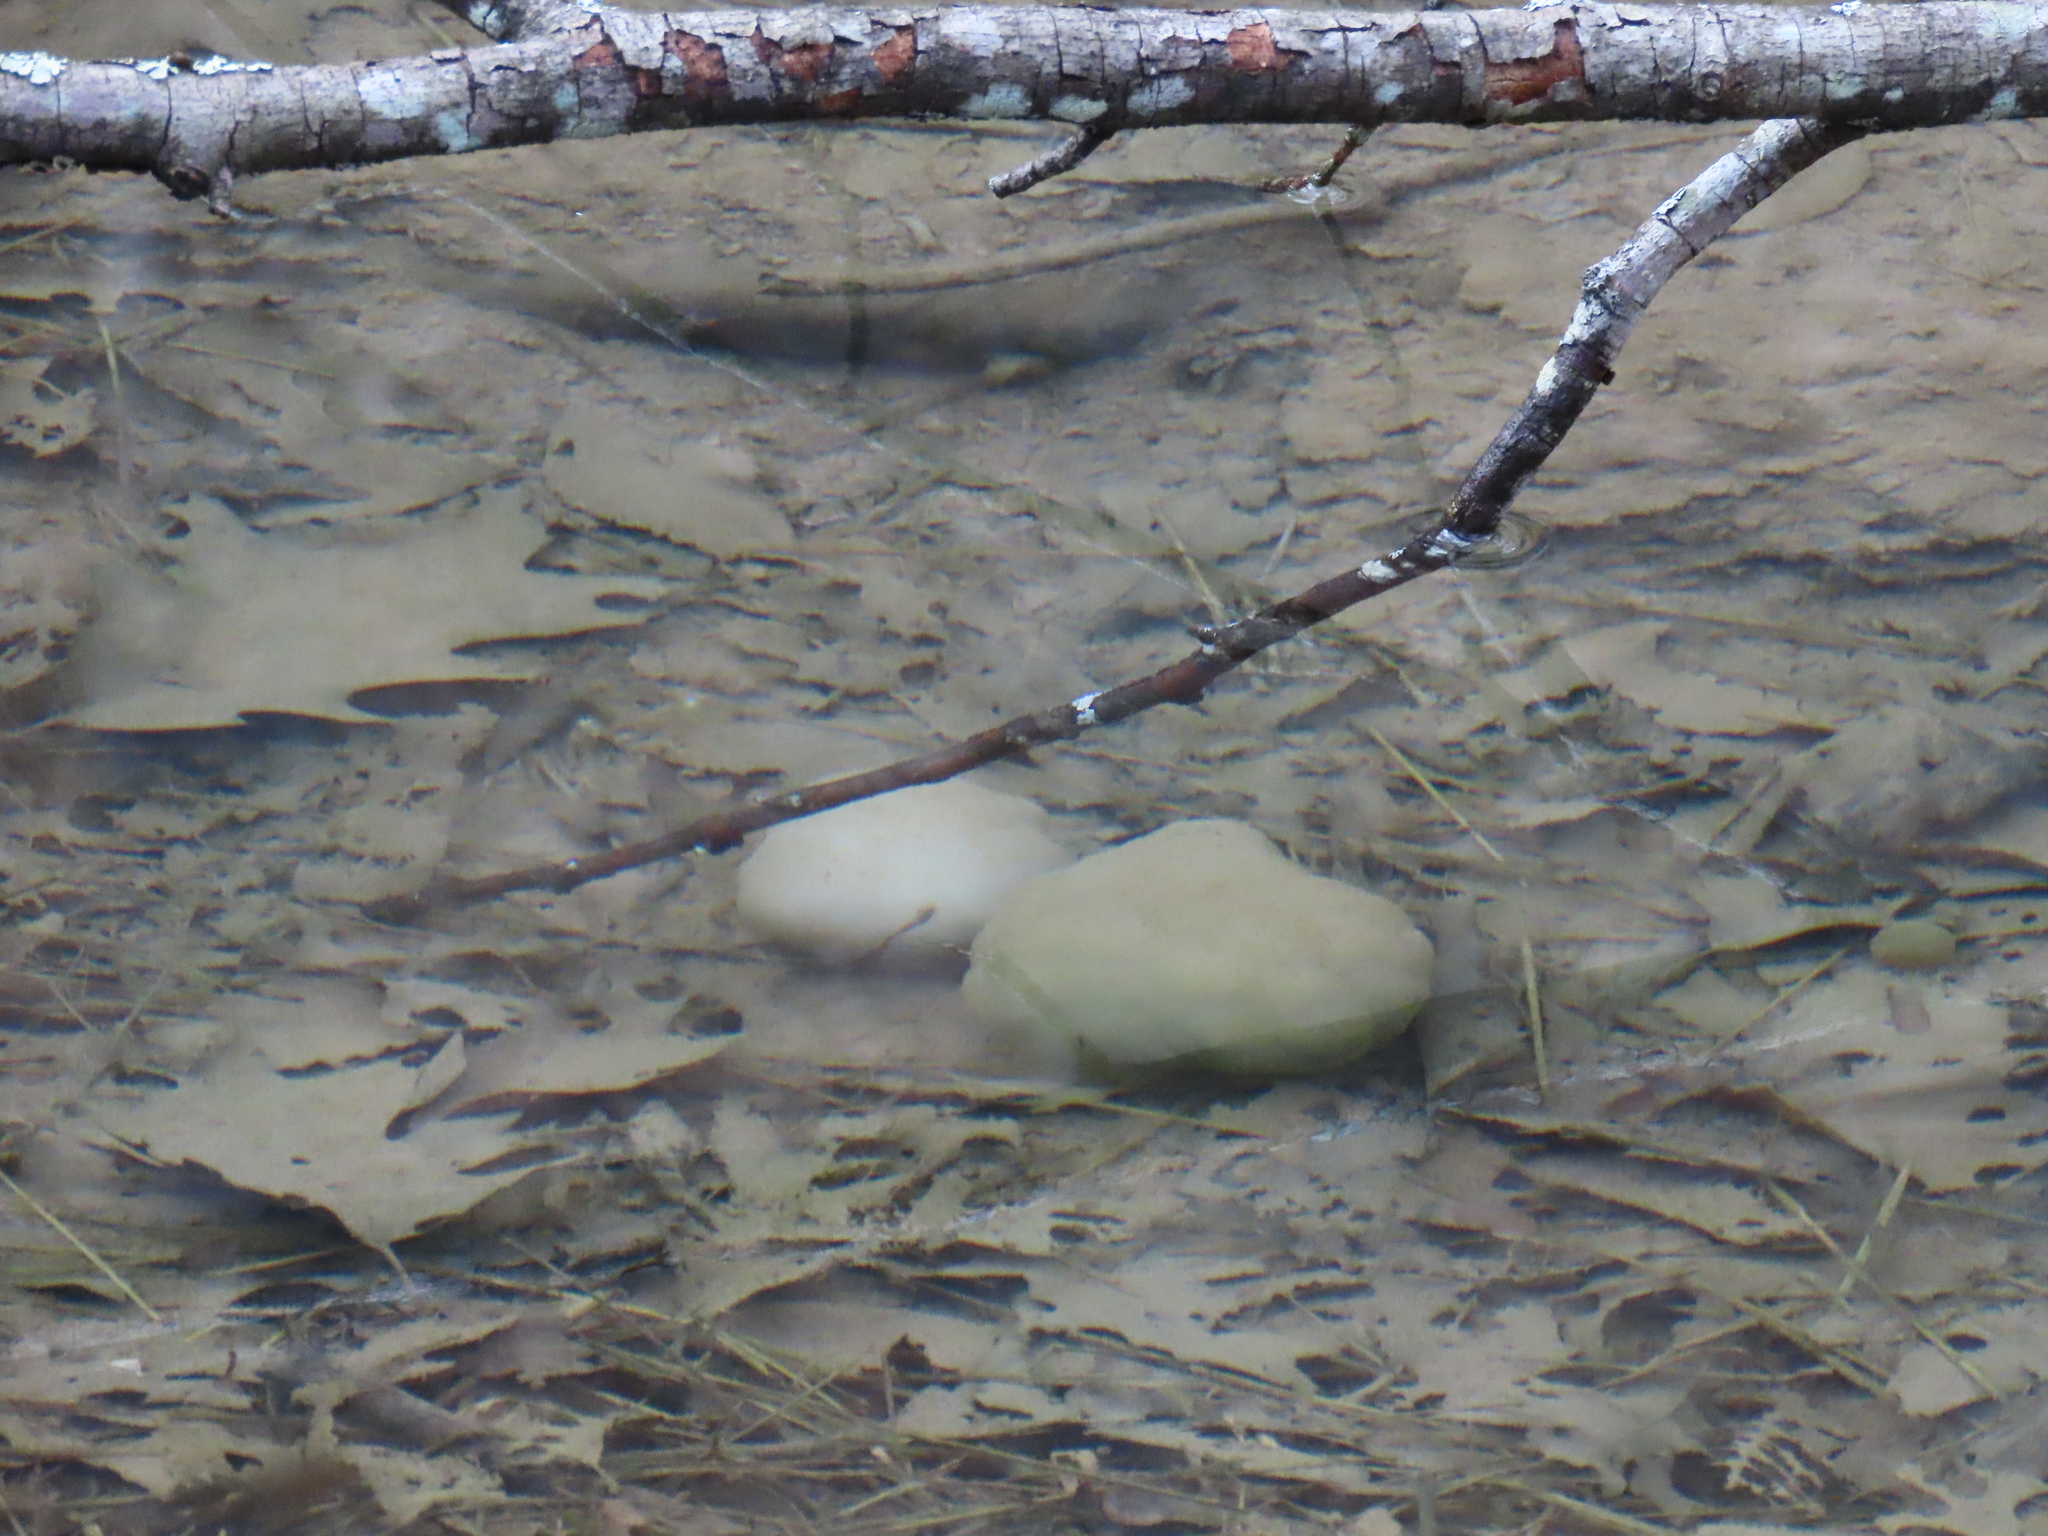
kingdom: Animalia
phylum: Chordata
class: Amphibia
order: Caudata
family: Ambystomatidae
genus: Ambystoma
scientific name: Ambystoma maculatum
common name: Spotted salamander
